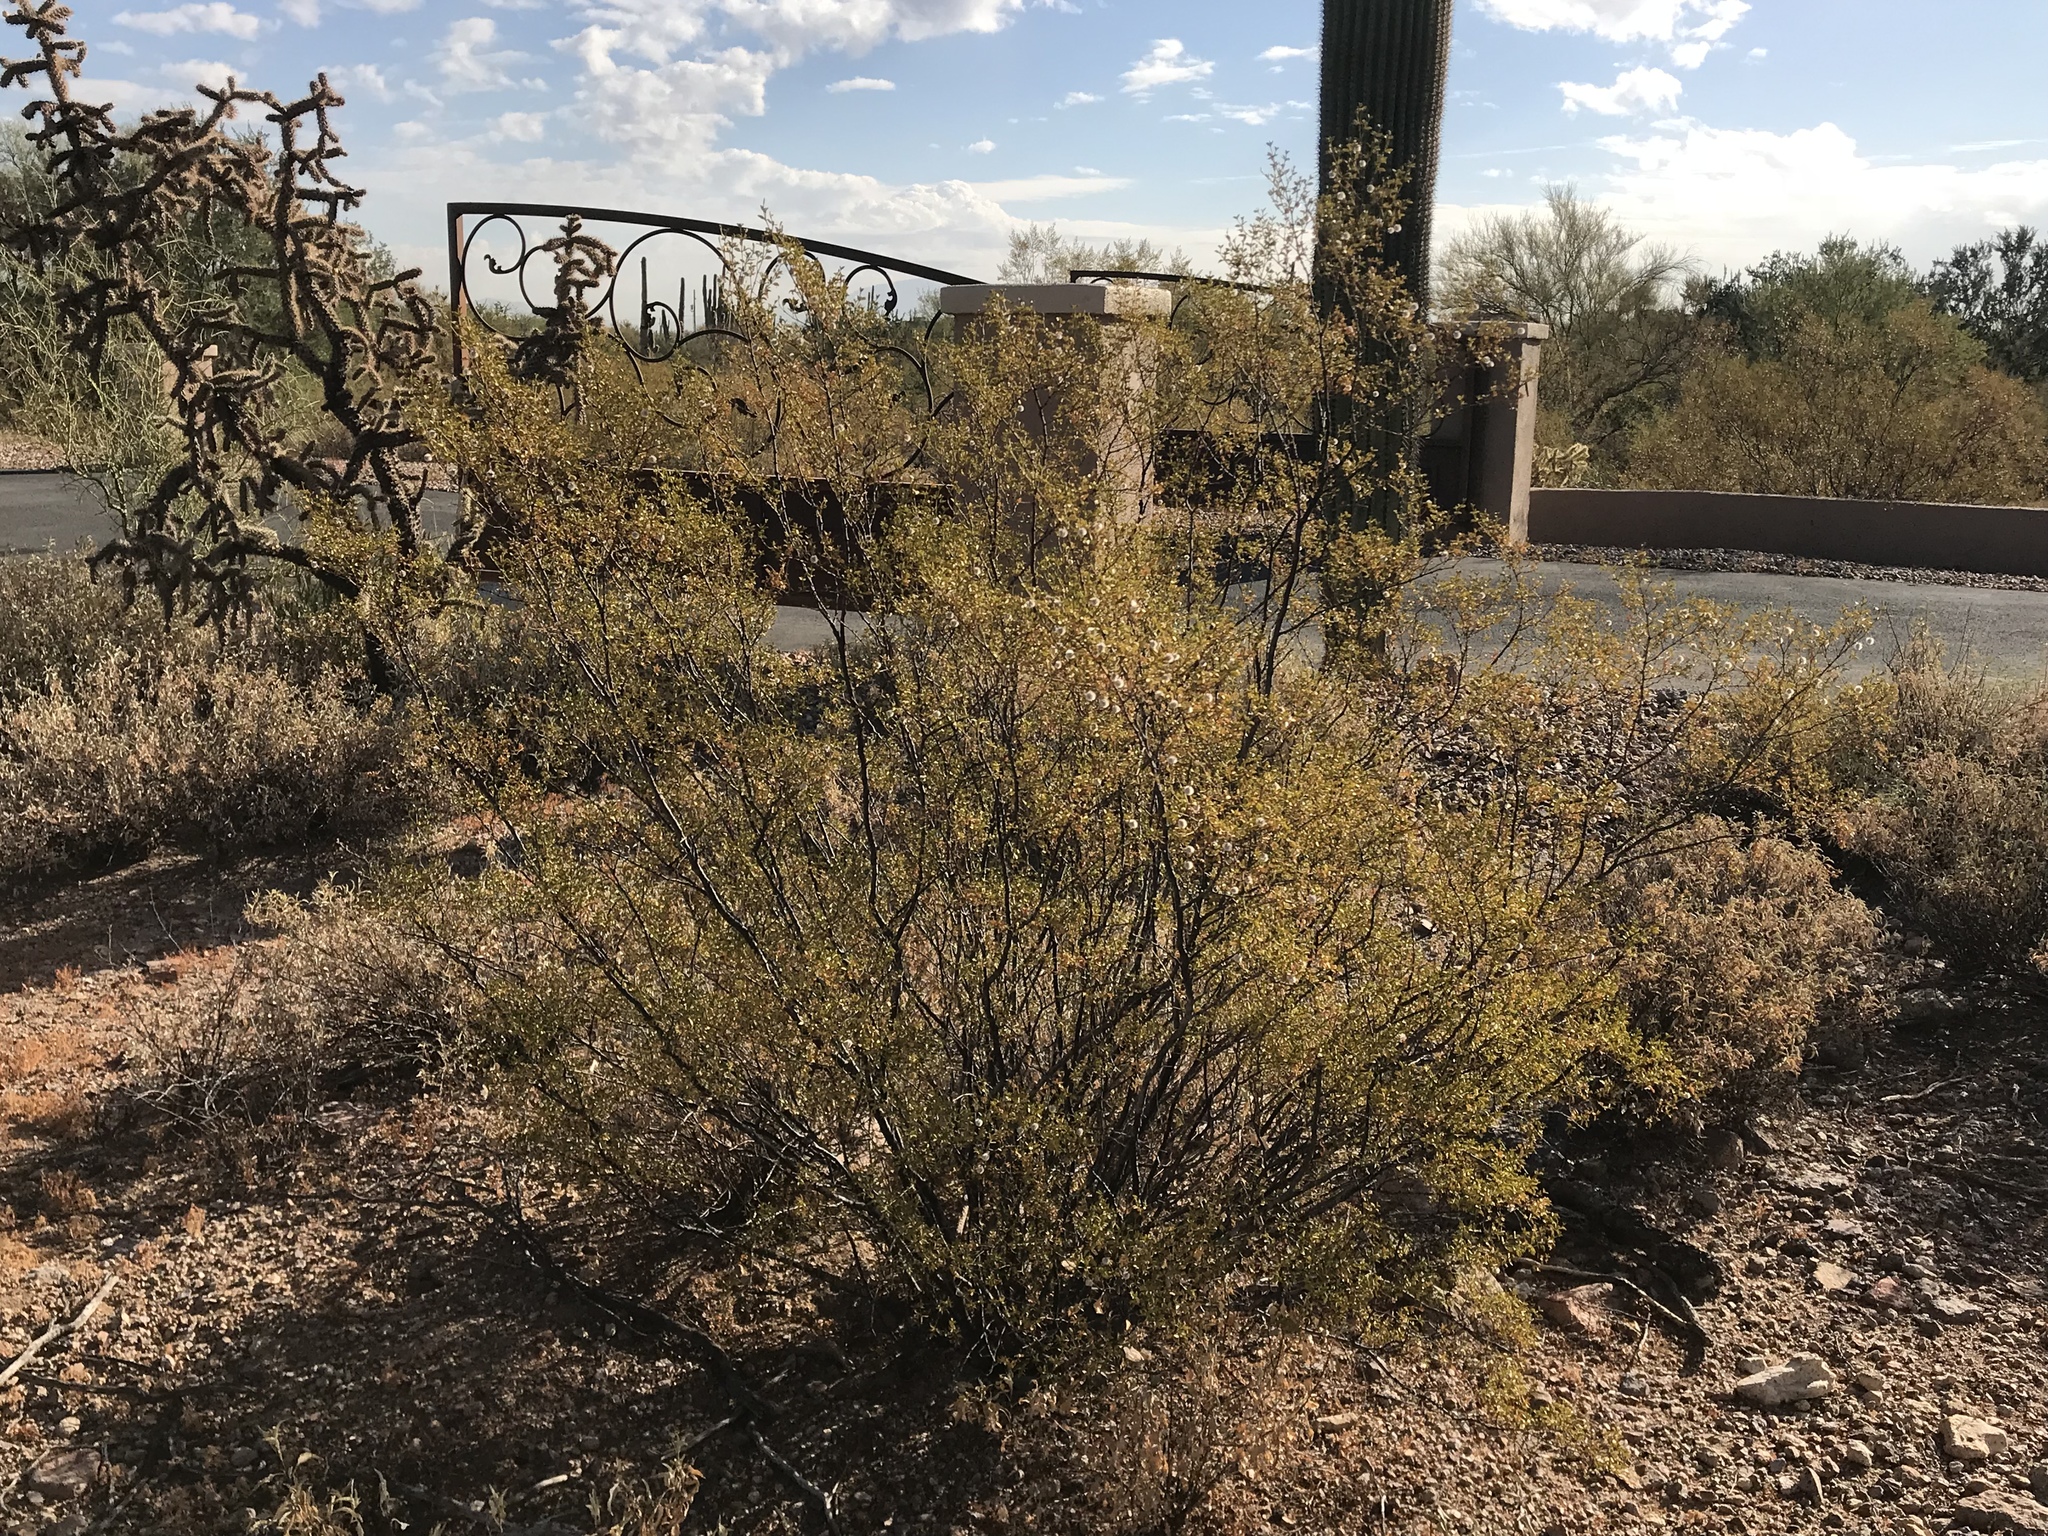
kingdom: Plantae
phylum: Tracheophyta
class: Magnoliopsida
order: Zygophyllales
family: Zygophyllaceae
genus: Larrea
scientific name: Larrea tridentata
